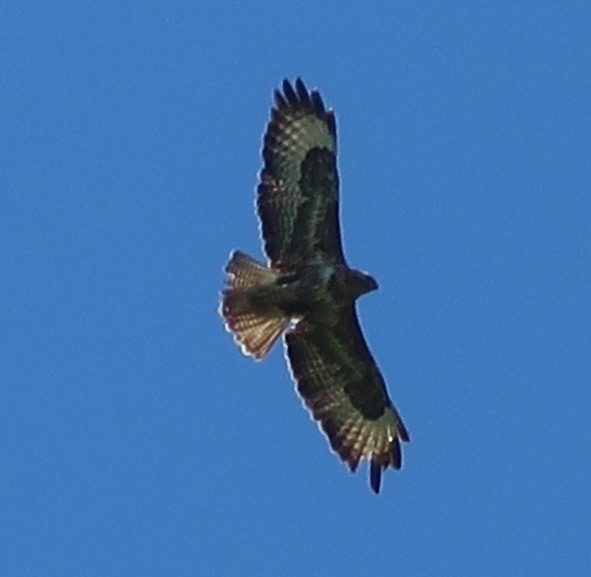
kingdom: Animalia
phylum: Chordata
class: Aves
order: Accipitriformes
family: Accipitridae
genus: Buteo
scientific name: Buteo buteo
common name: Common buzzard
